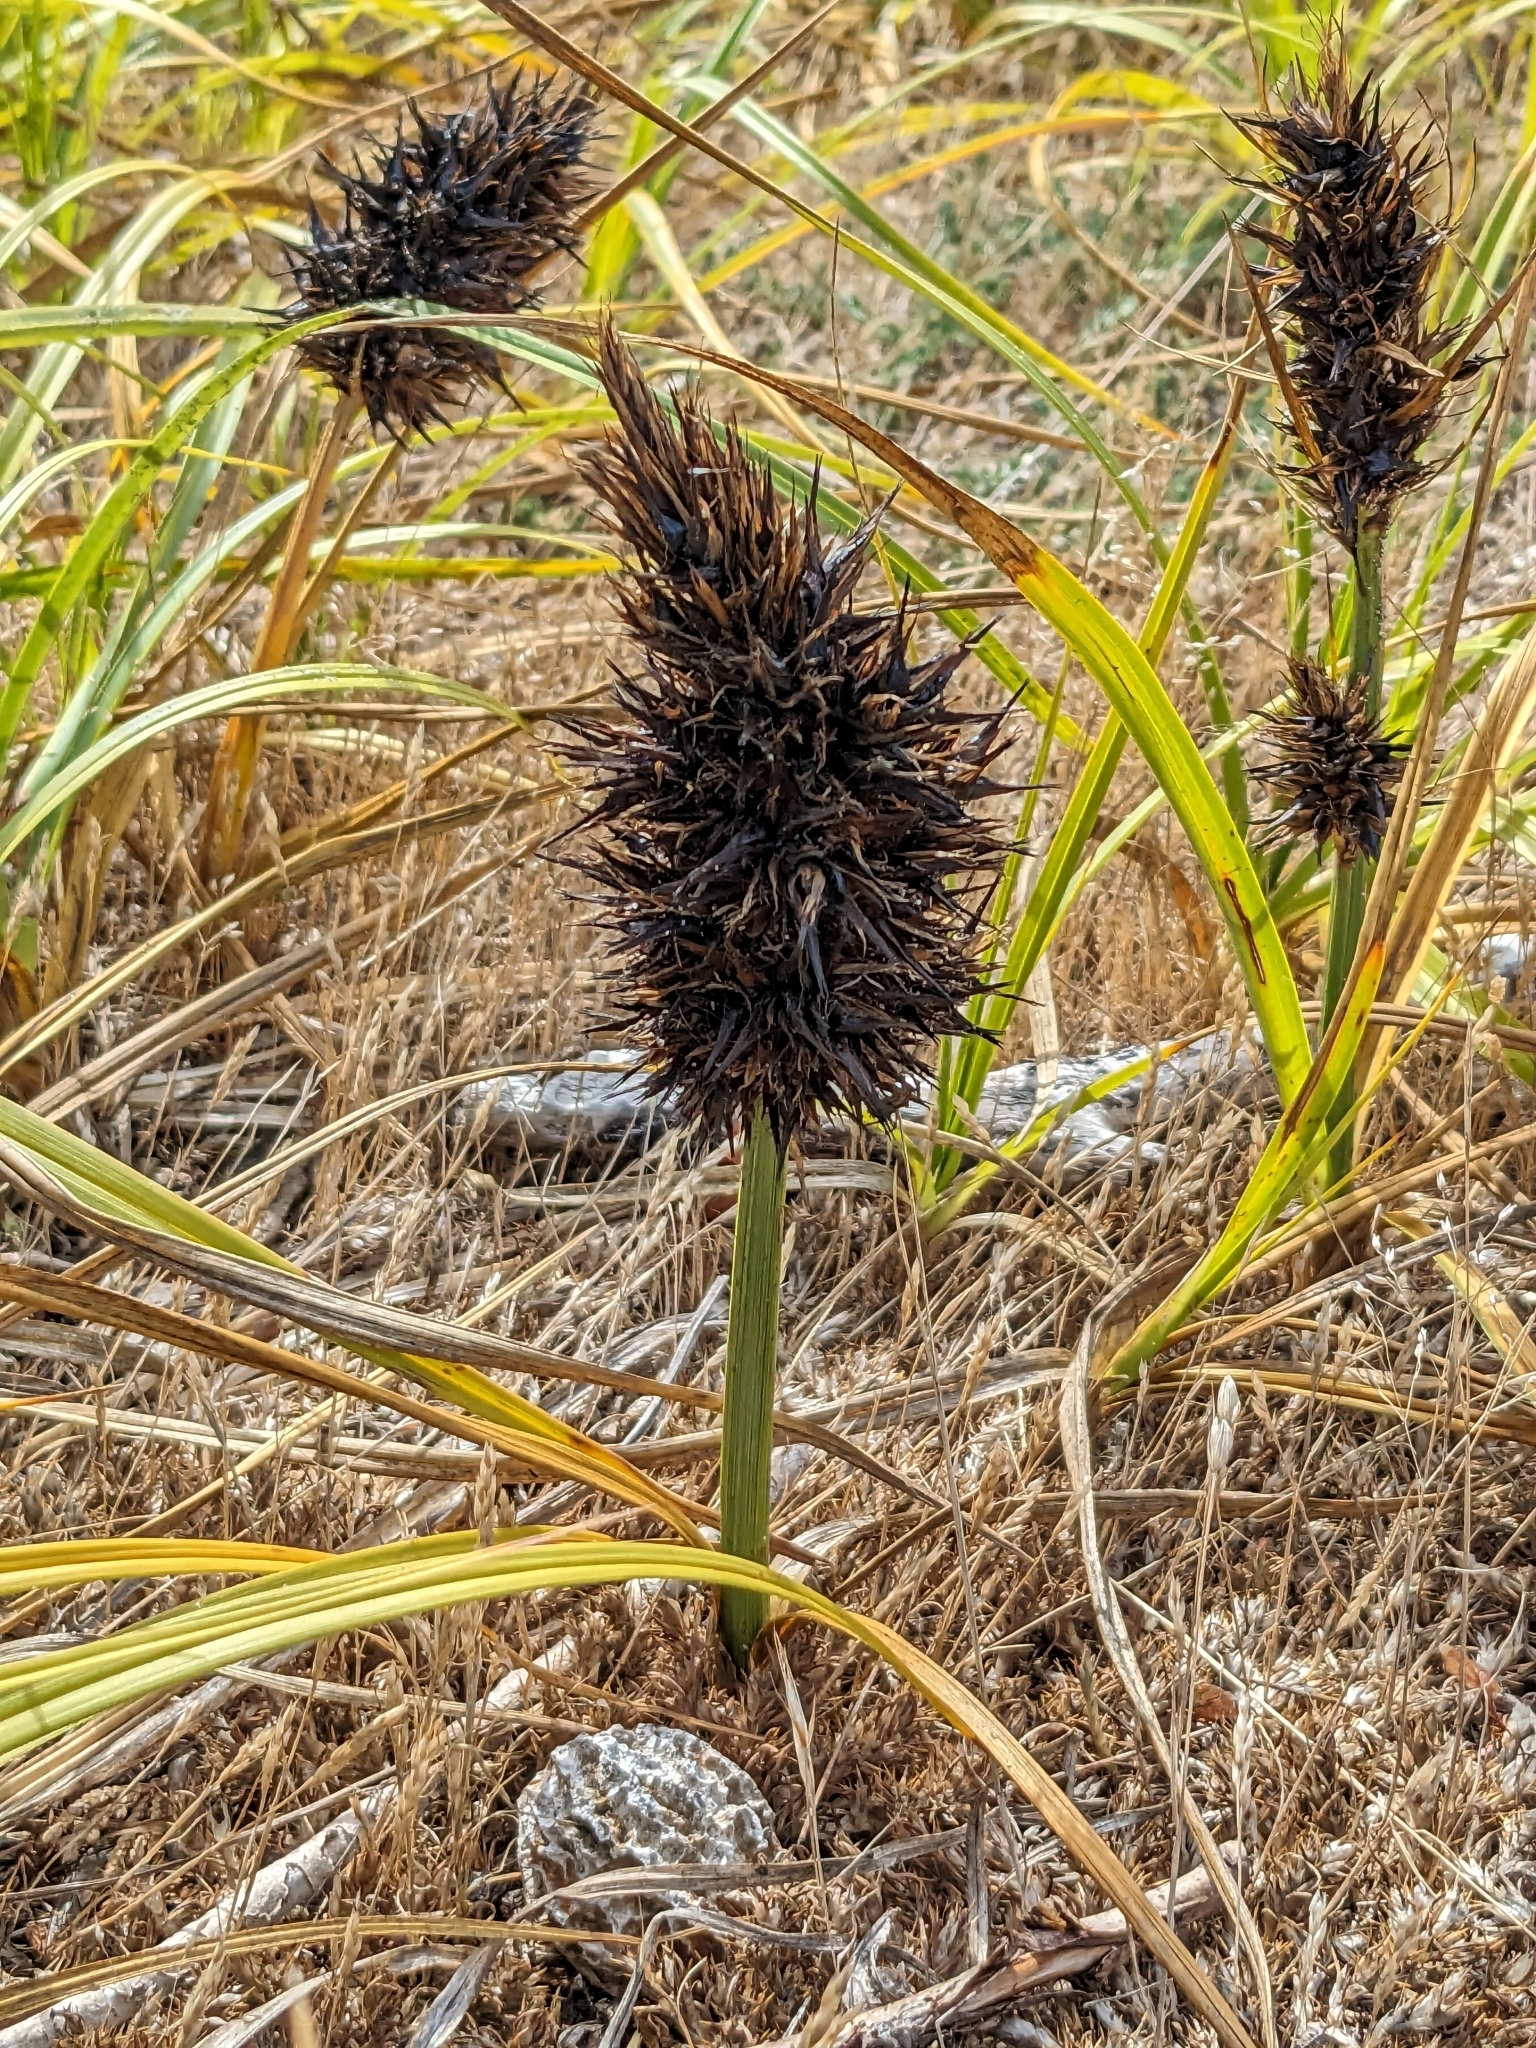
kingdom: Plantae
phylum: Tracheophyta
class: Liliopsida
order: Poales
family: Cyperaceae
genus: Carex
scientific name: Carex macrocephala
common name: Large-head sedge
